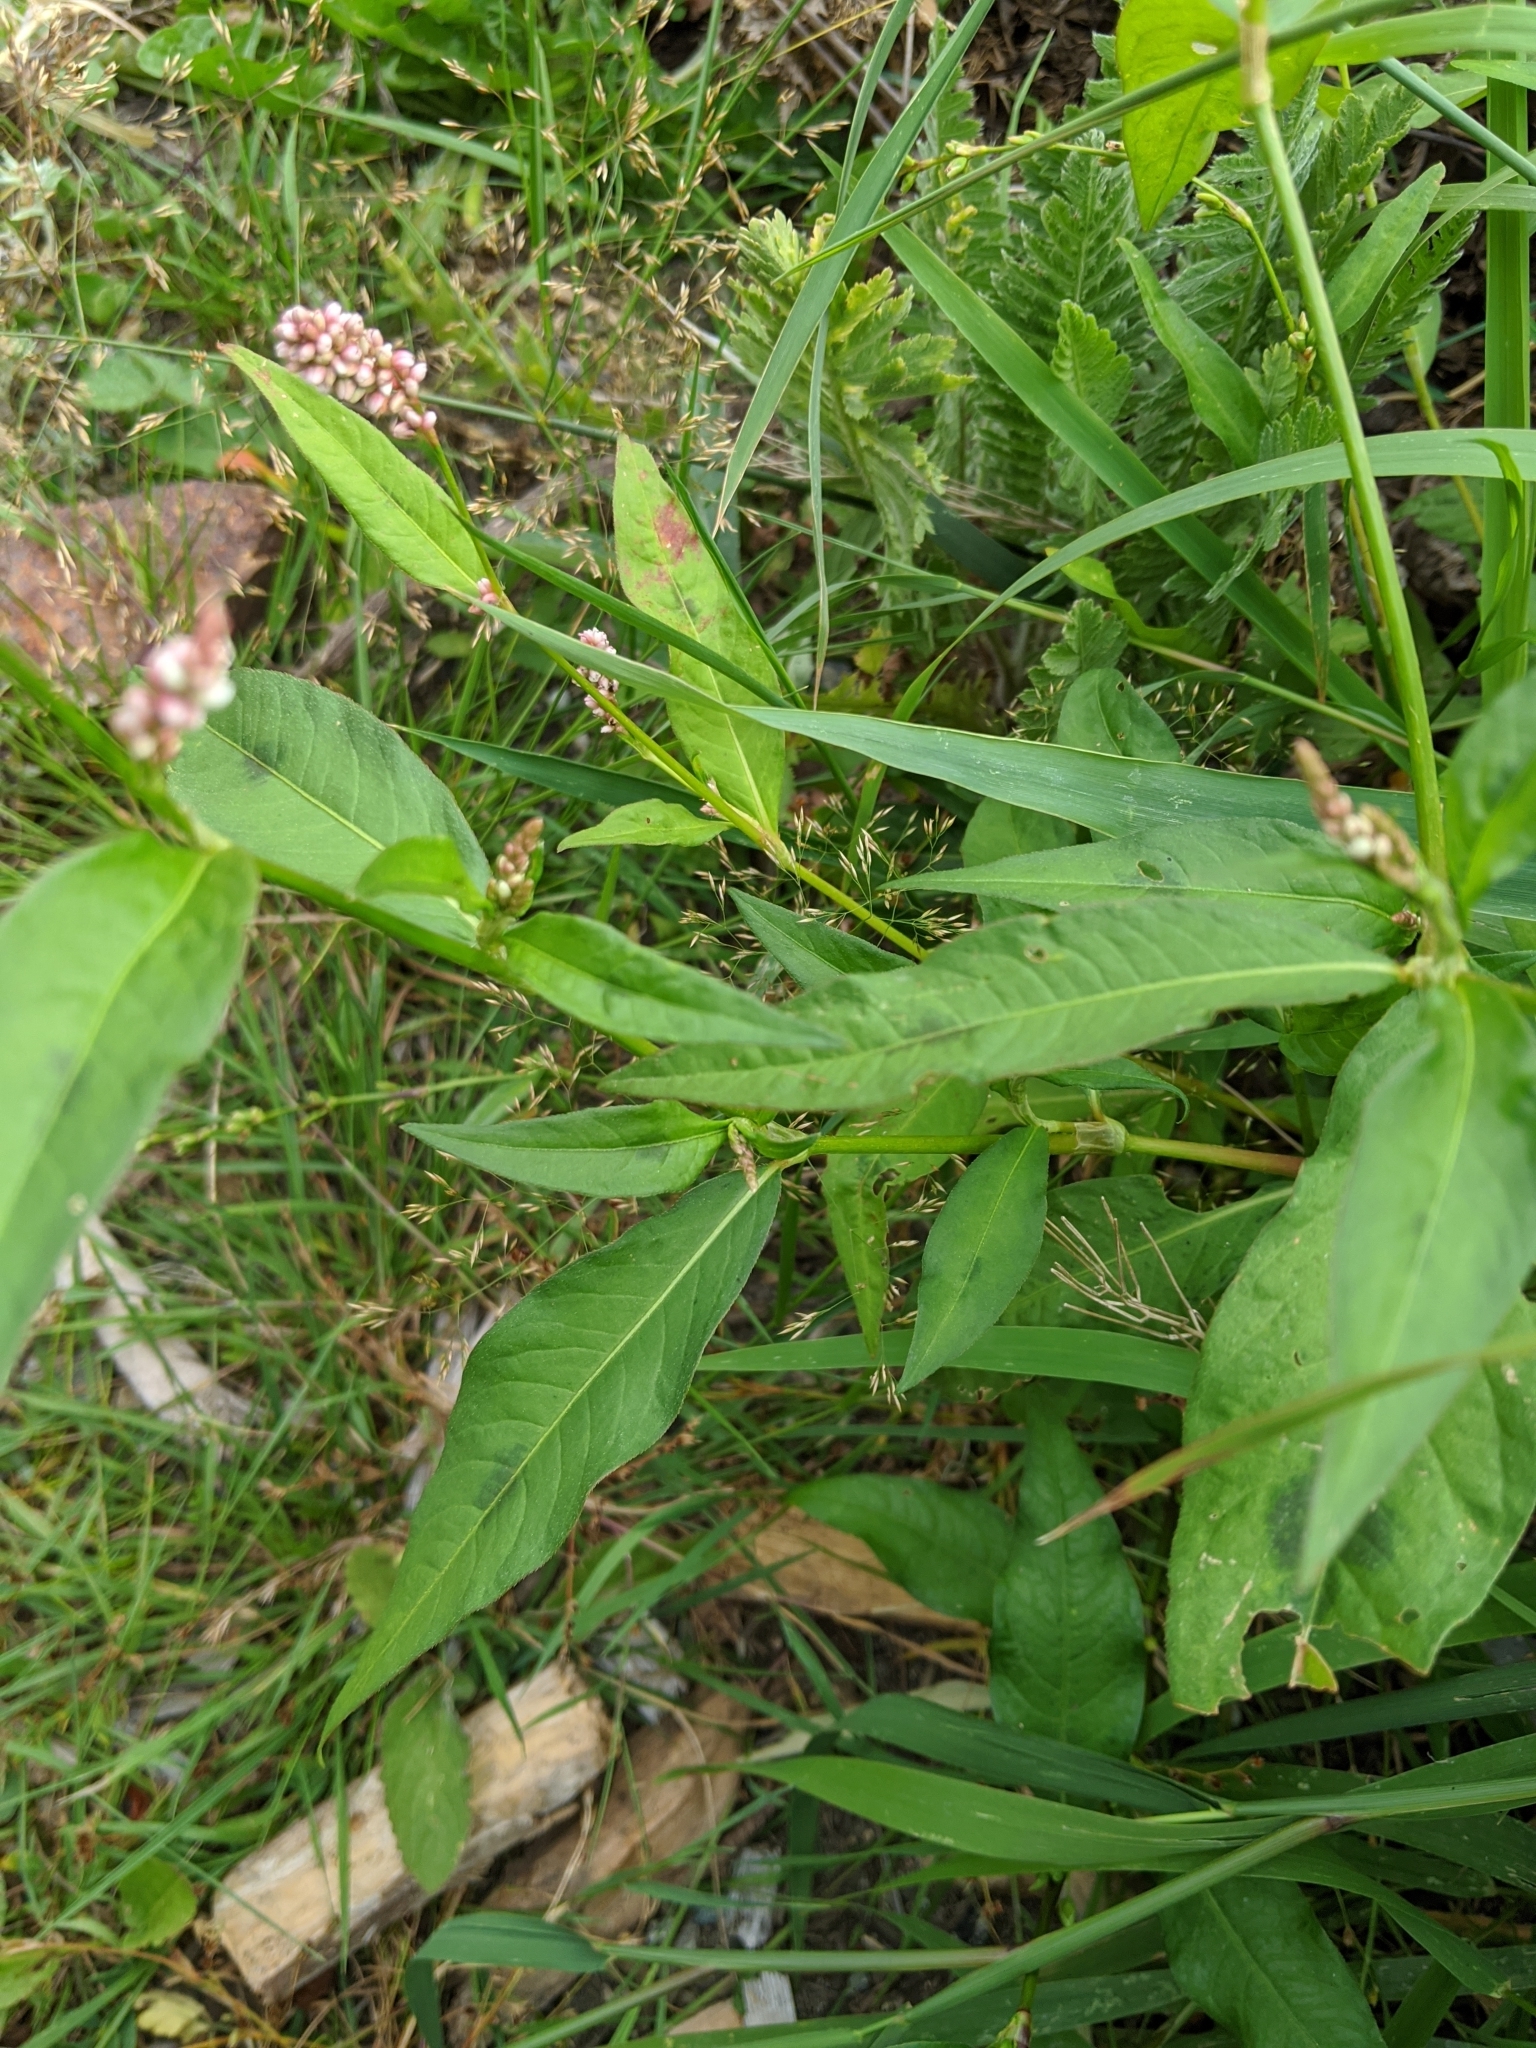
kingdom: Plantae
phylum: Tracheophyta
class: Magnoliopsida
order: Caryophyllales
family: Polygonaceae
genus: Persicaria
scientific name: Persicaria maculosa
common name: Redshank
